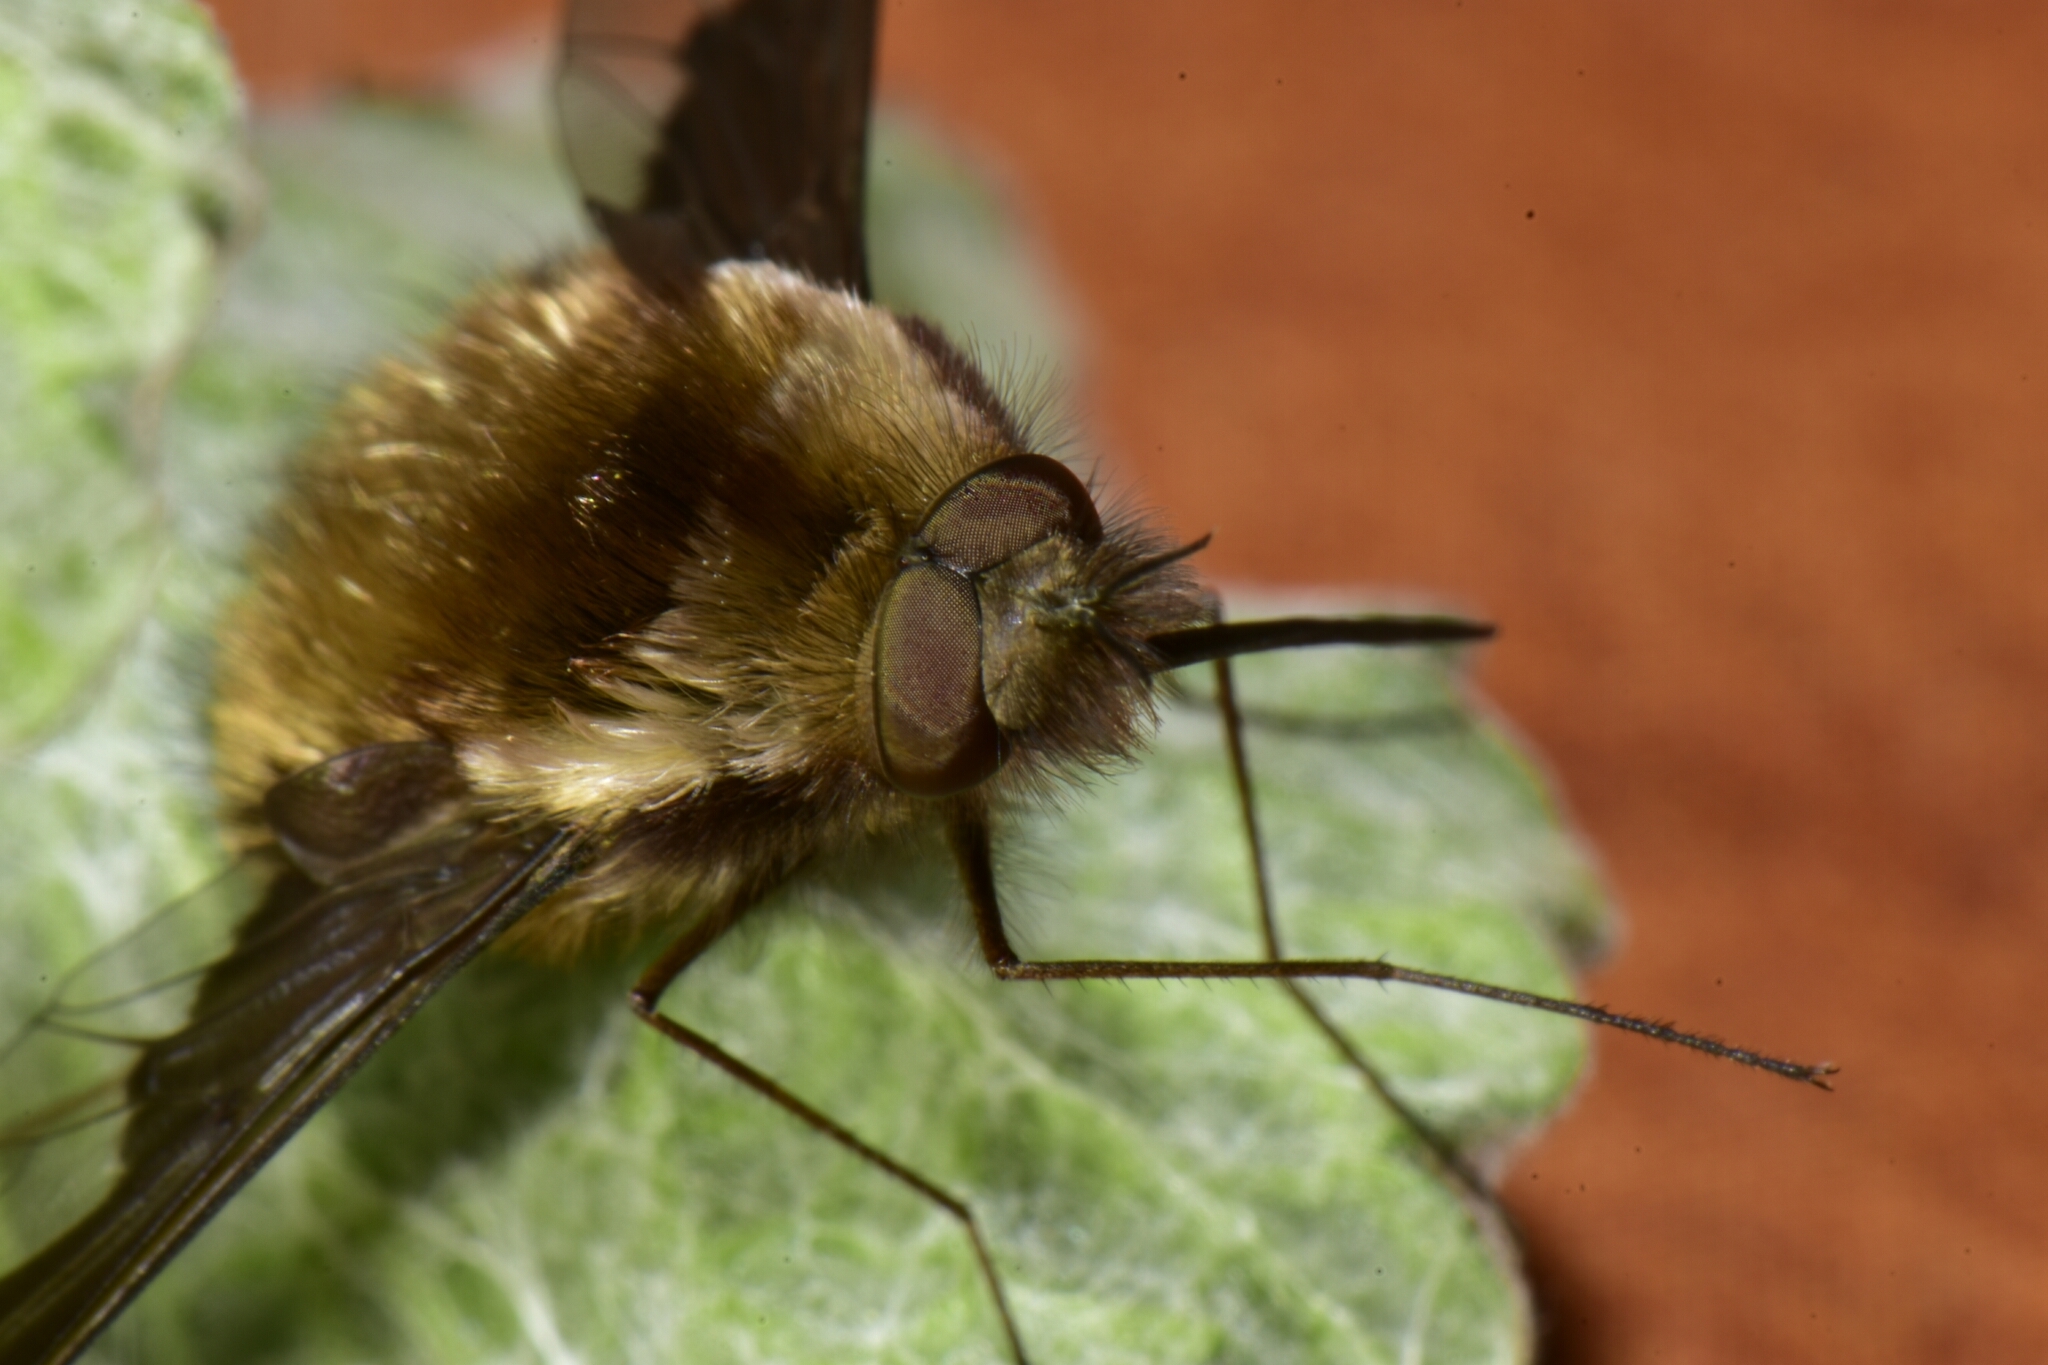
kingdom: Animalia
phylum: Arthropoda
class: Insecta
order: Diptera
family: Bombyliidae
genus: Bombylius
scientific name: Bombylius major
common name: Bee fly
